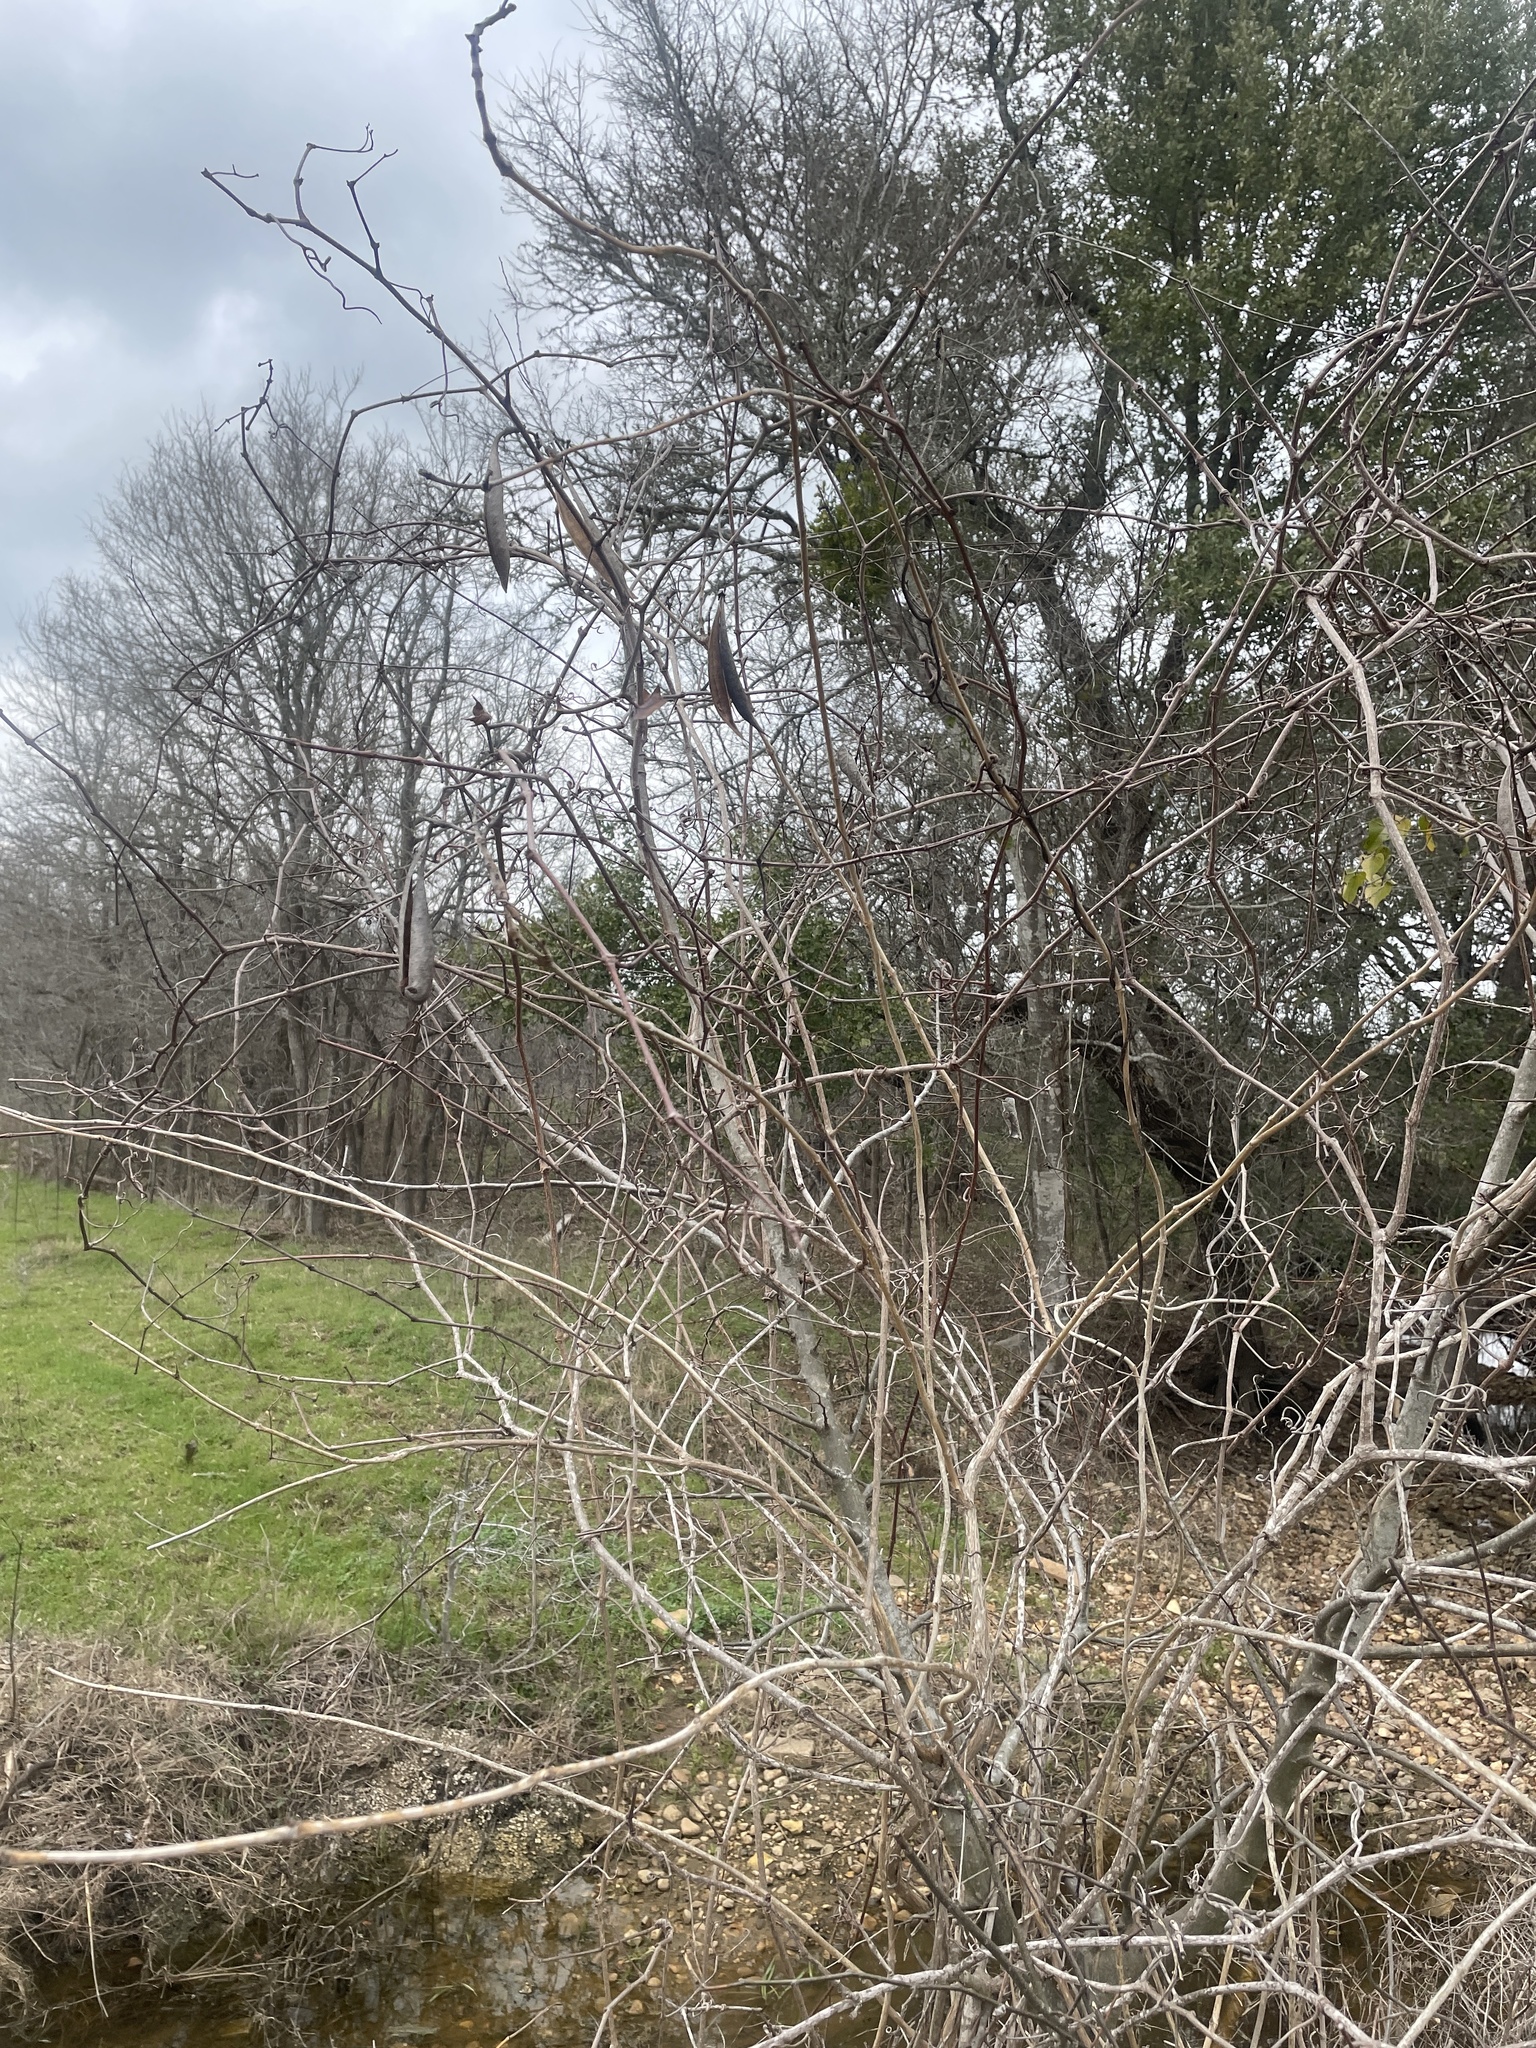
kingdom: Plantae
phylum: Tracheophyta
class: Magnoliopsida
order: Lamiales
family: Bignoniaceae
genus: Campsis
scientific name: Campsis radicans
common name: Trumpet-creeper
